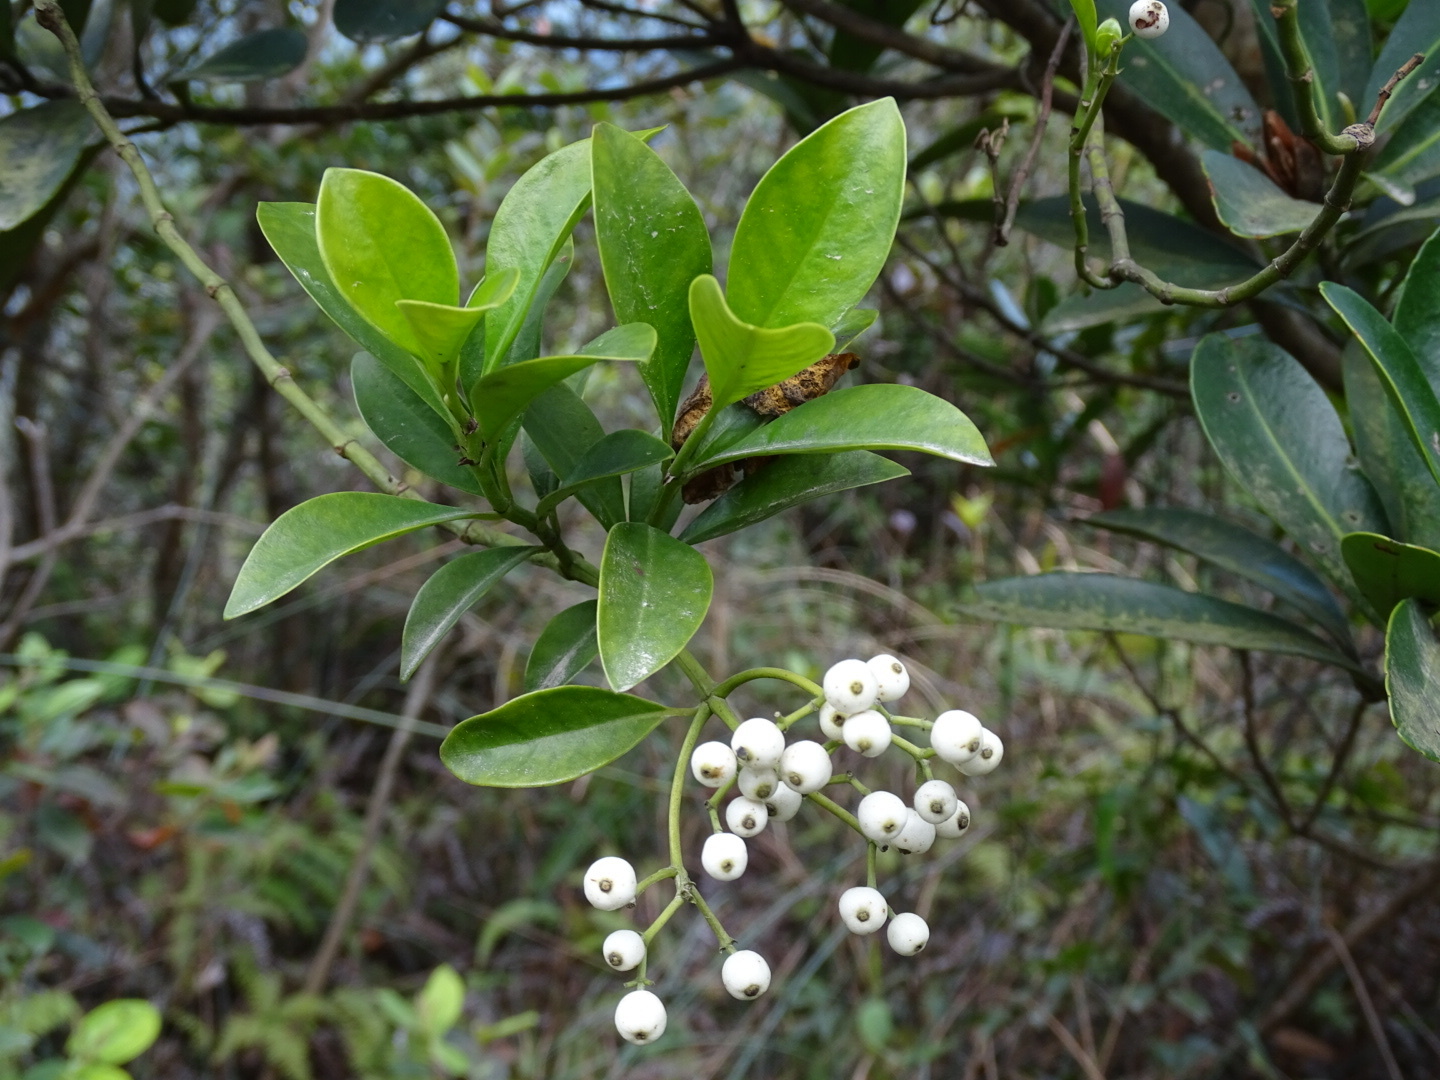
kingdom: Plantae
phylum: Tracheophyta
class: Magnoliopsida
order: Gentianales
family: Rubiaceae
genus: Psychotria
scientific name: Psychotria serpens
